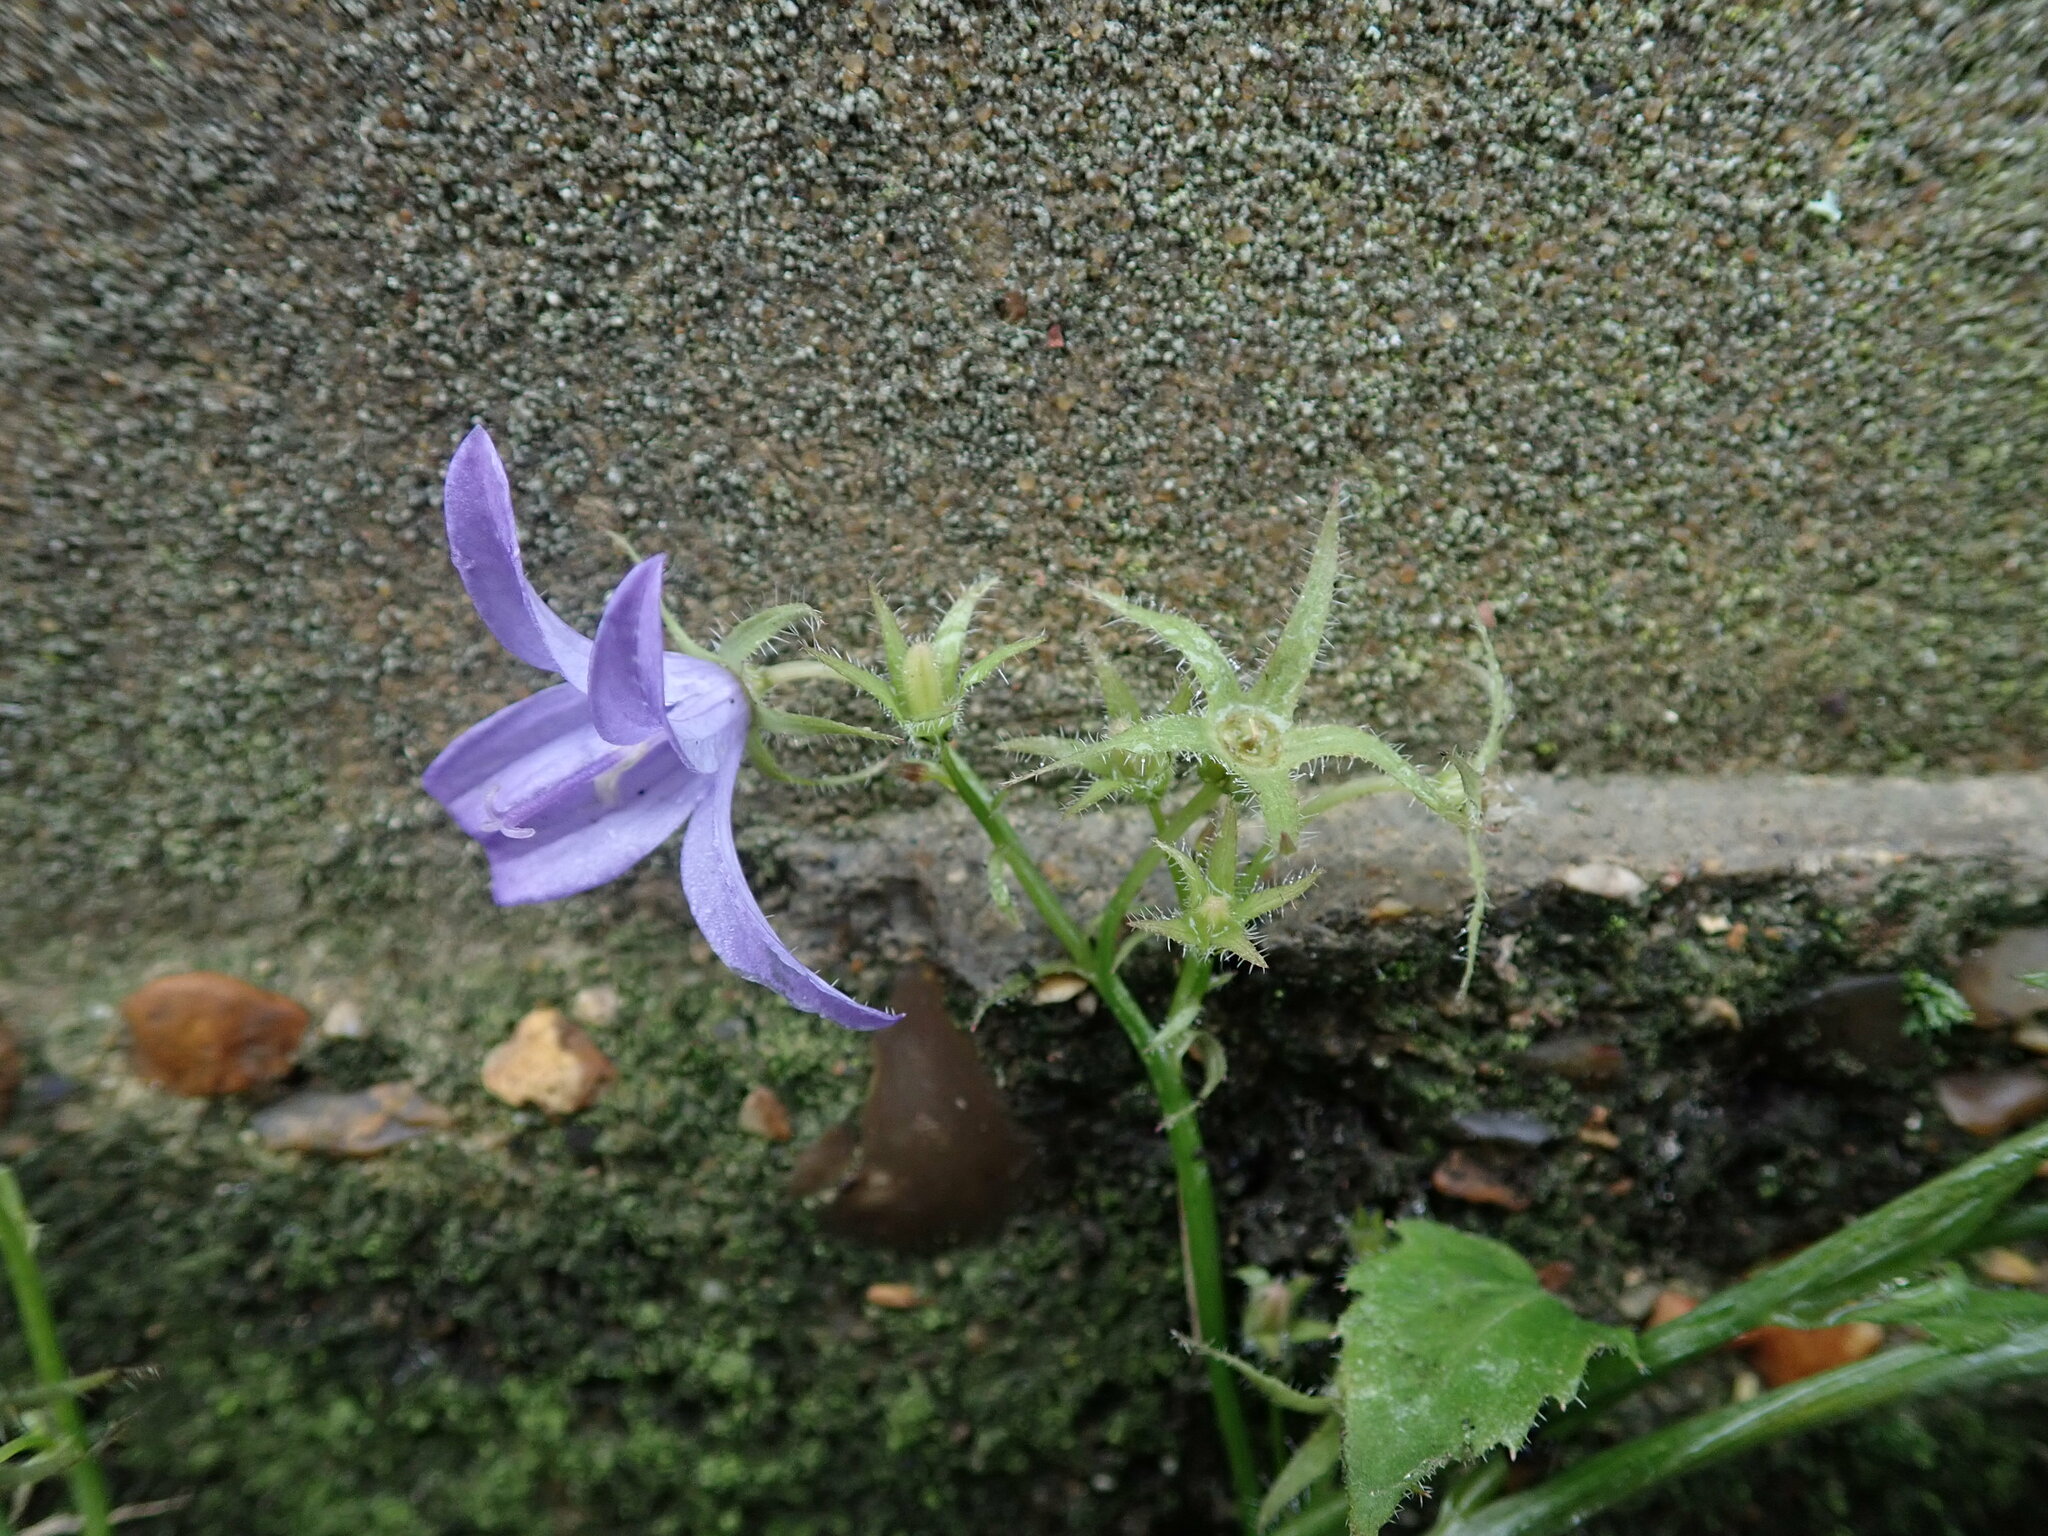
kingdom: Plantae
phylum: Tracheophyta
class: Magnoliopsida
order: Asterales
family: Campanulaceae
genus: Campanula
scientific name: Campanula poscharskyana
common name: Trailing bellflower
